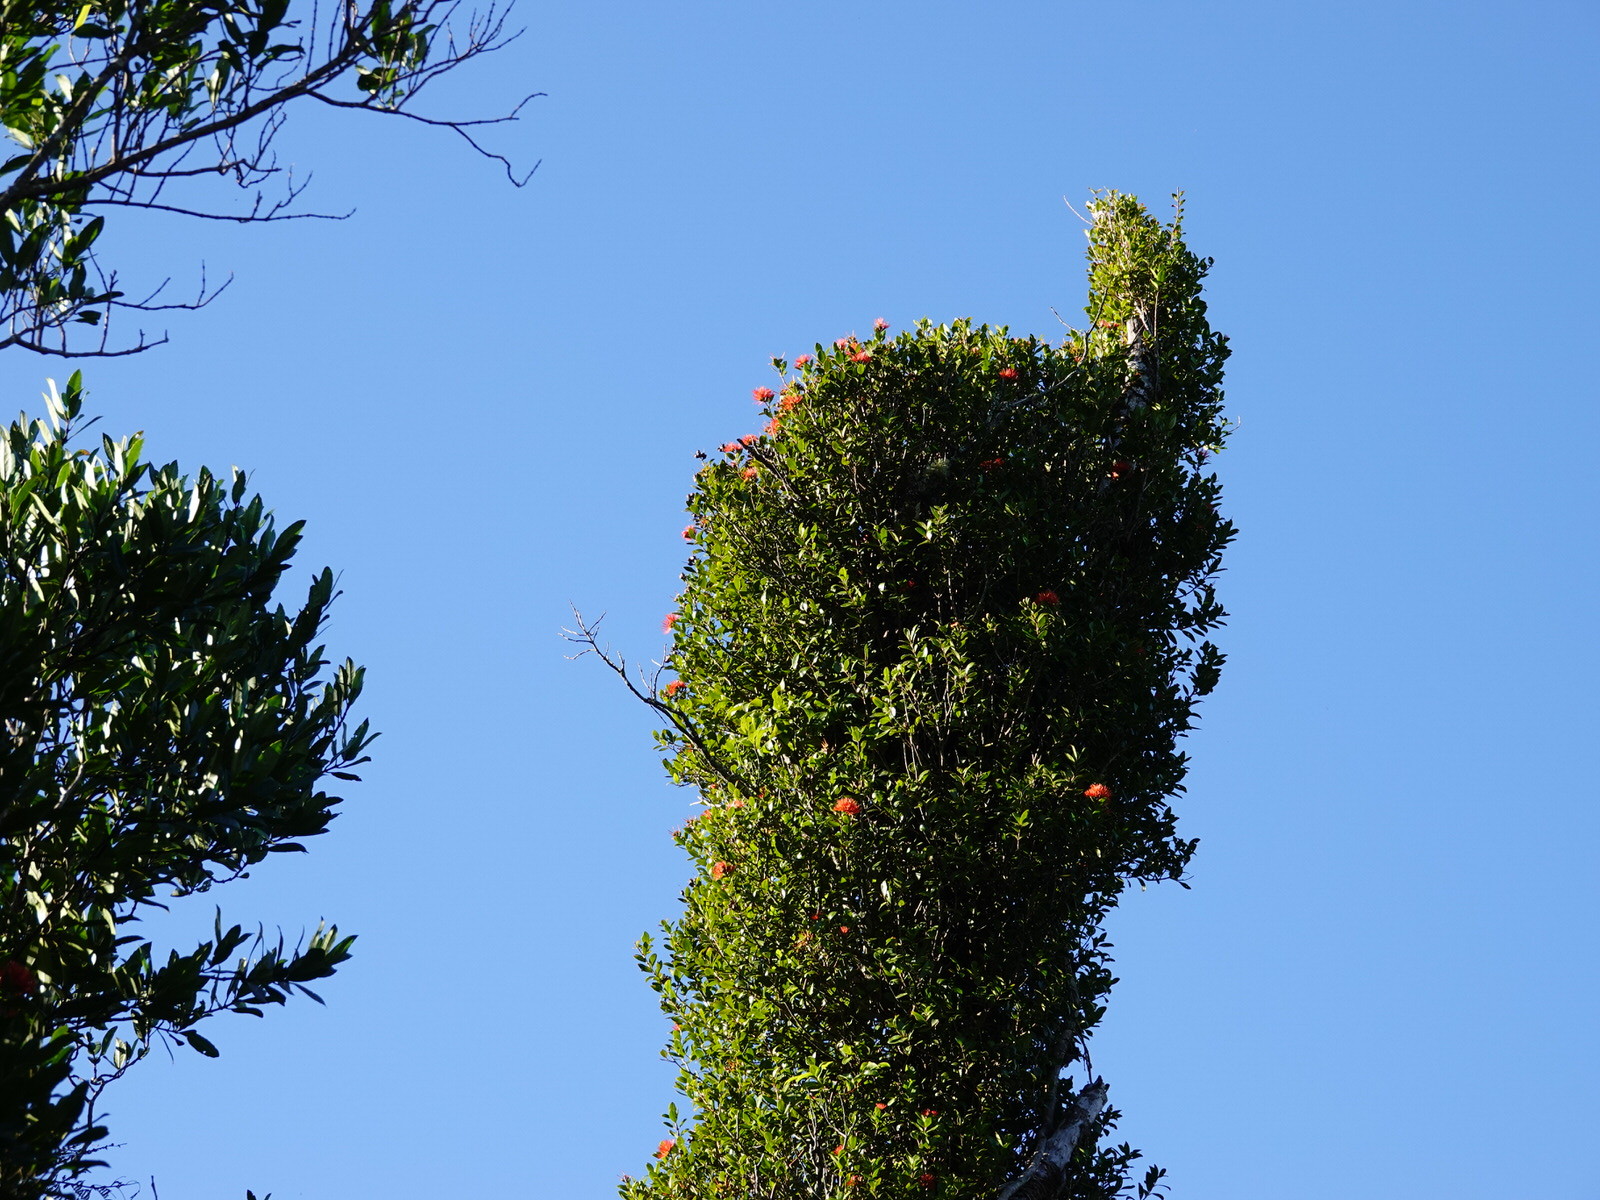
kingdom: Plantae
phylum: Tracheophyta
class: Magnoliopsida
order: Myrtales
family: Myrtaceae
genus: Metrosideros
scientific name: Metrosideros fulgens
